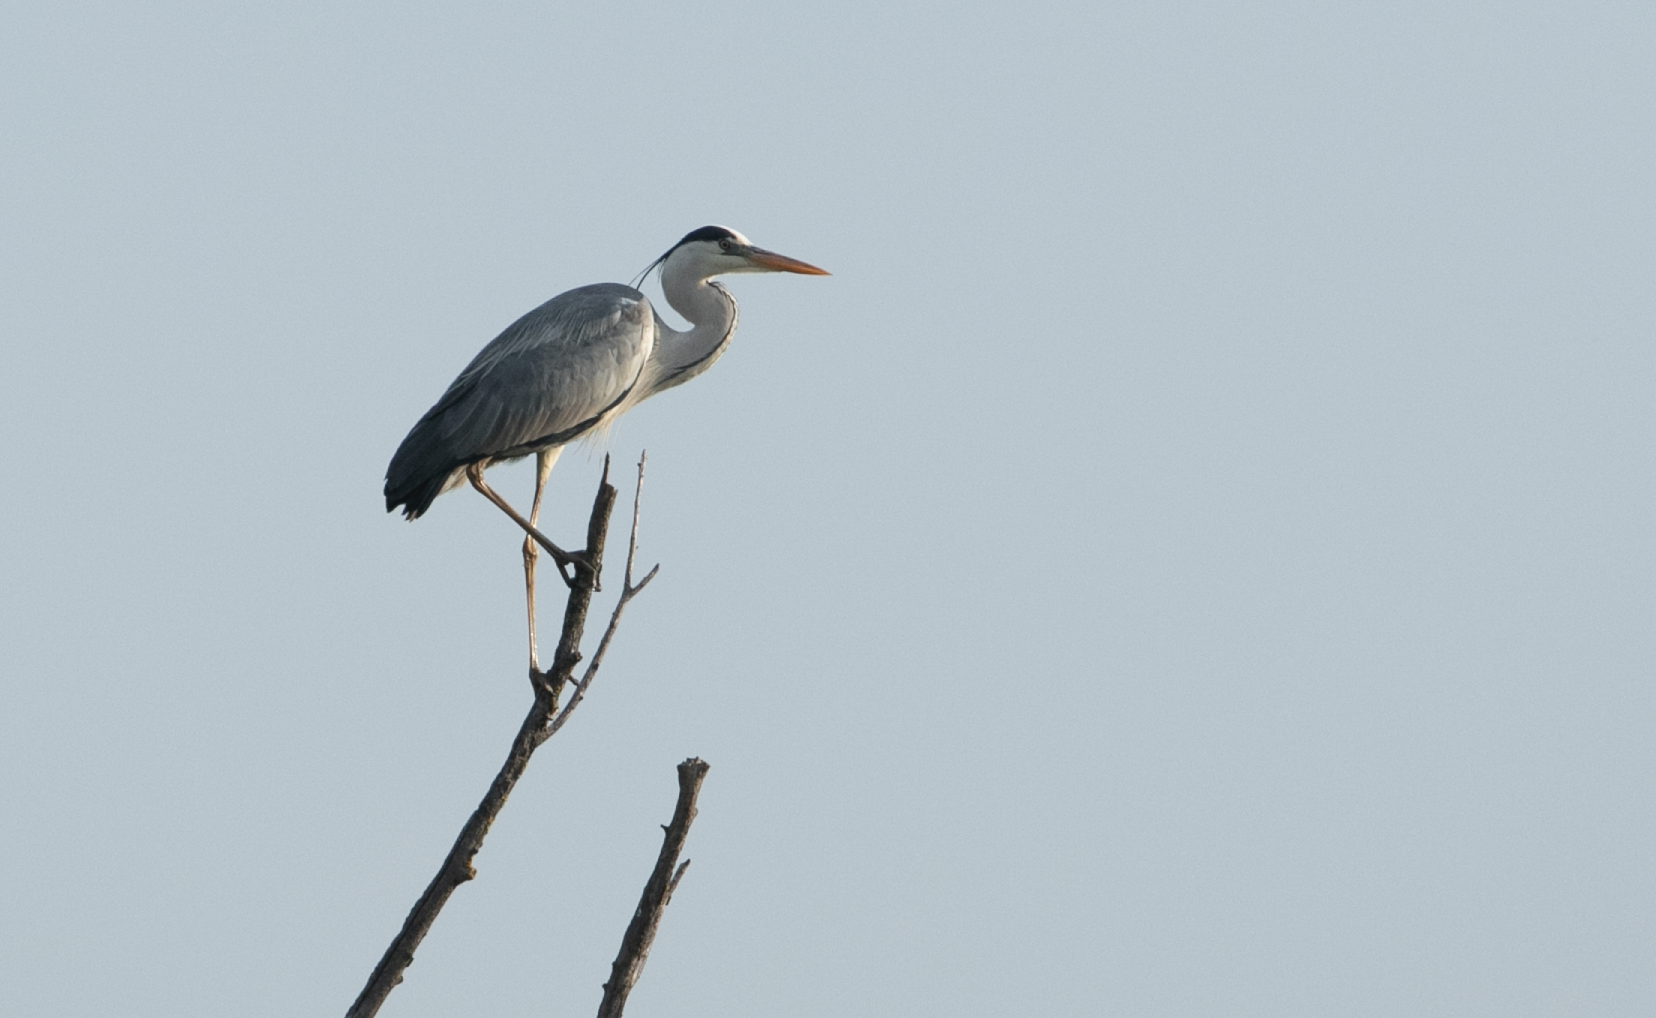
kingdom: Animalia
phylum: Chordata
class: Aves
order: Pelecaniformes
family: Ardeidae
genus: Ardea
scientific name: Ardea cinerea
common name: Grey heron
